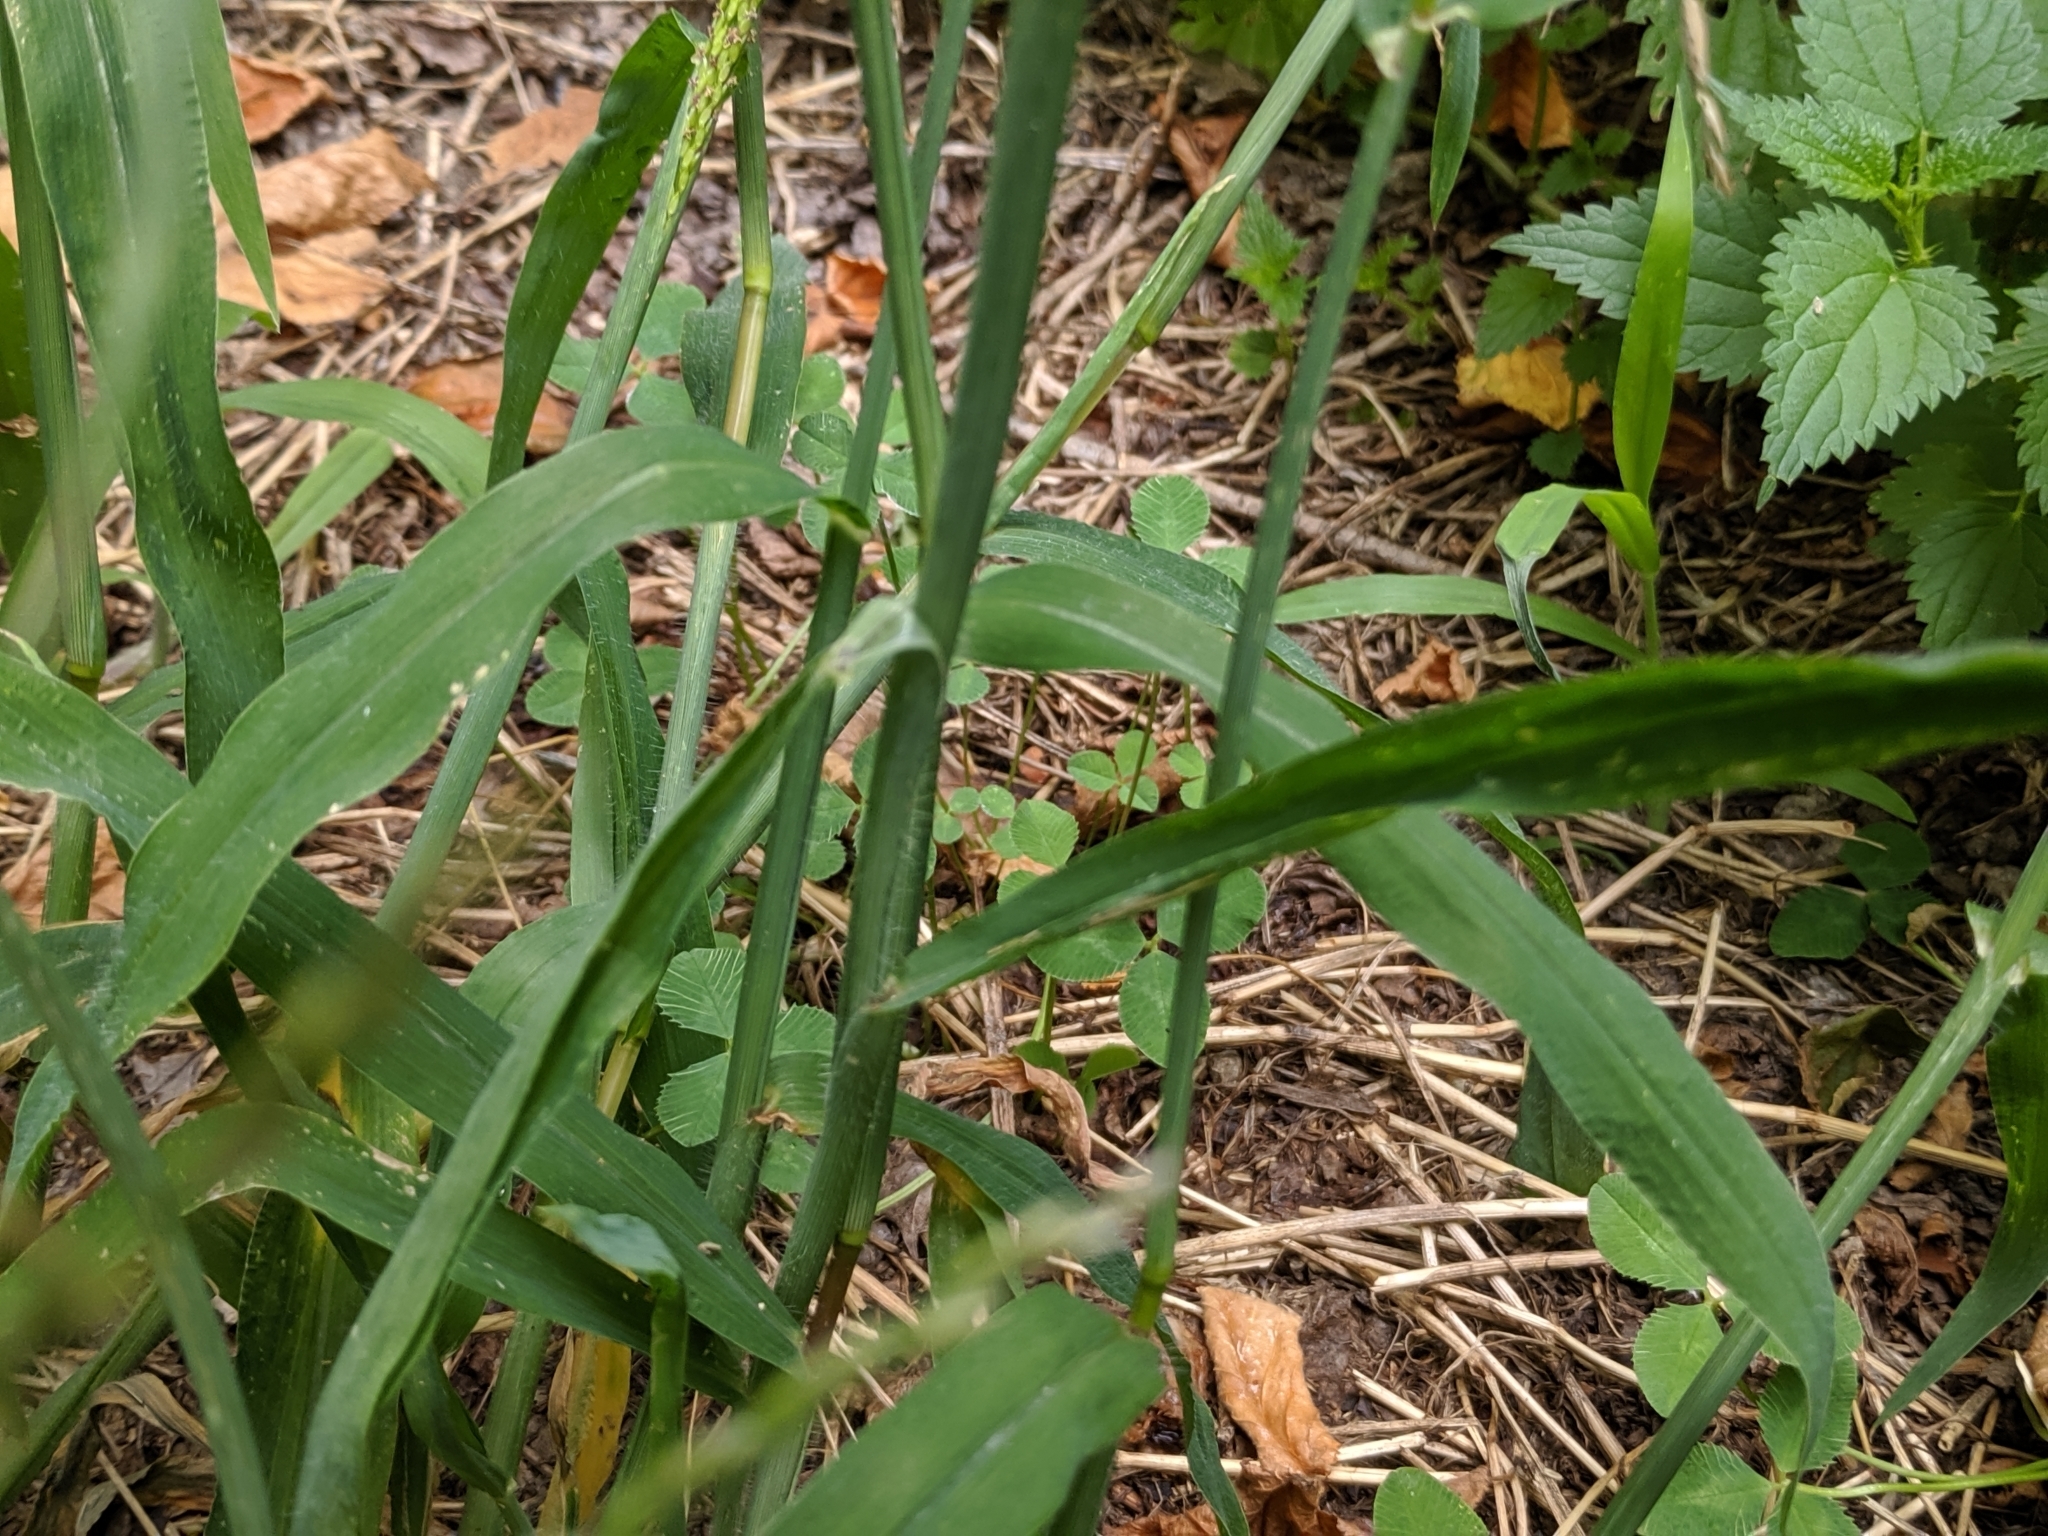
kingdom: Plantae
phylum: Tracheophyta
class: Liliopsida
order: Poales
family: Poaceae
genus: Digitaria
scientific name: Digitaria sanguinalis
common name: Hairy crabgrass
